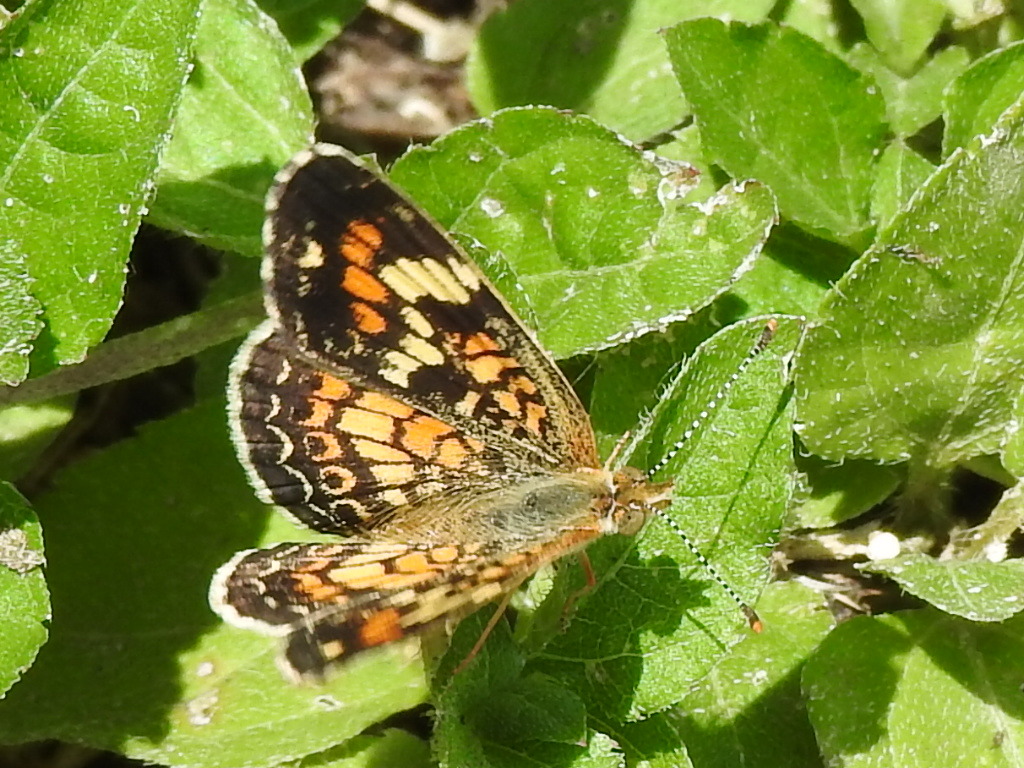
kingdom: Animalia
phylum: Arthropoda
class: Insecta
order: Lepidoptera
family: Nymphalidae
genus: Phyciodes
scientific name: Phyciodes phaon
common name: Phaon crescent
